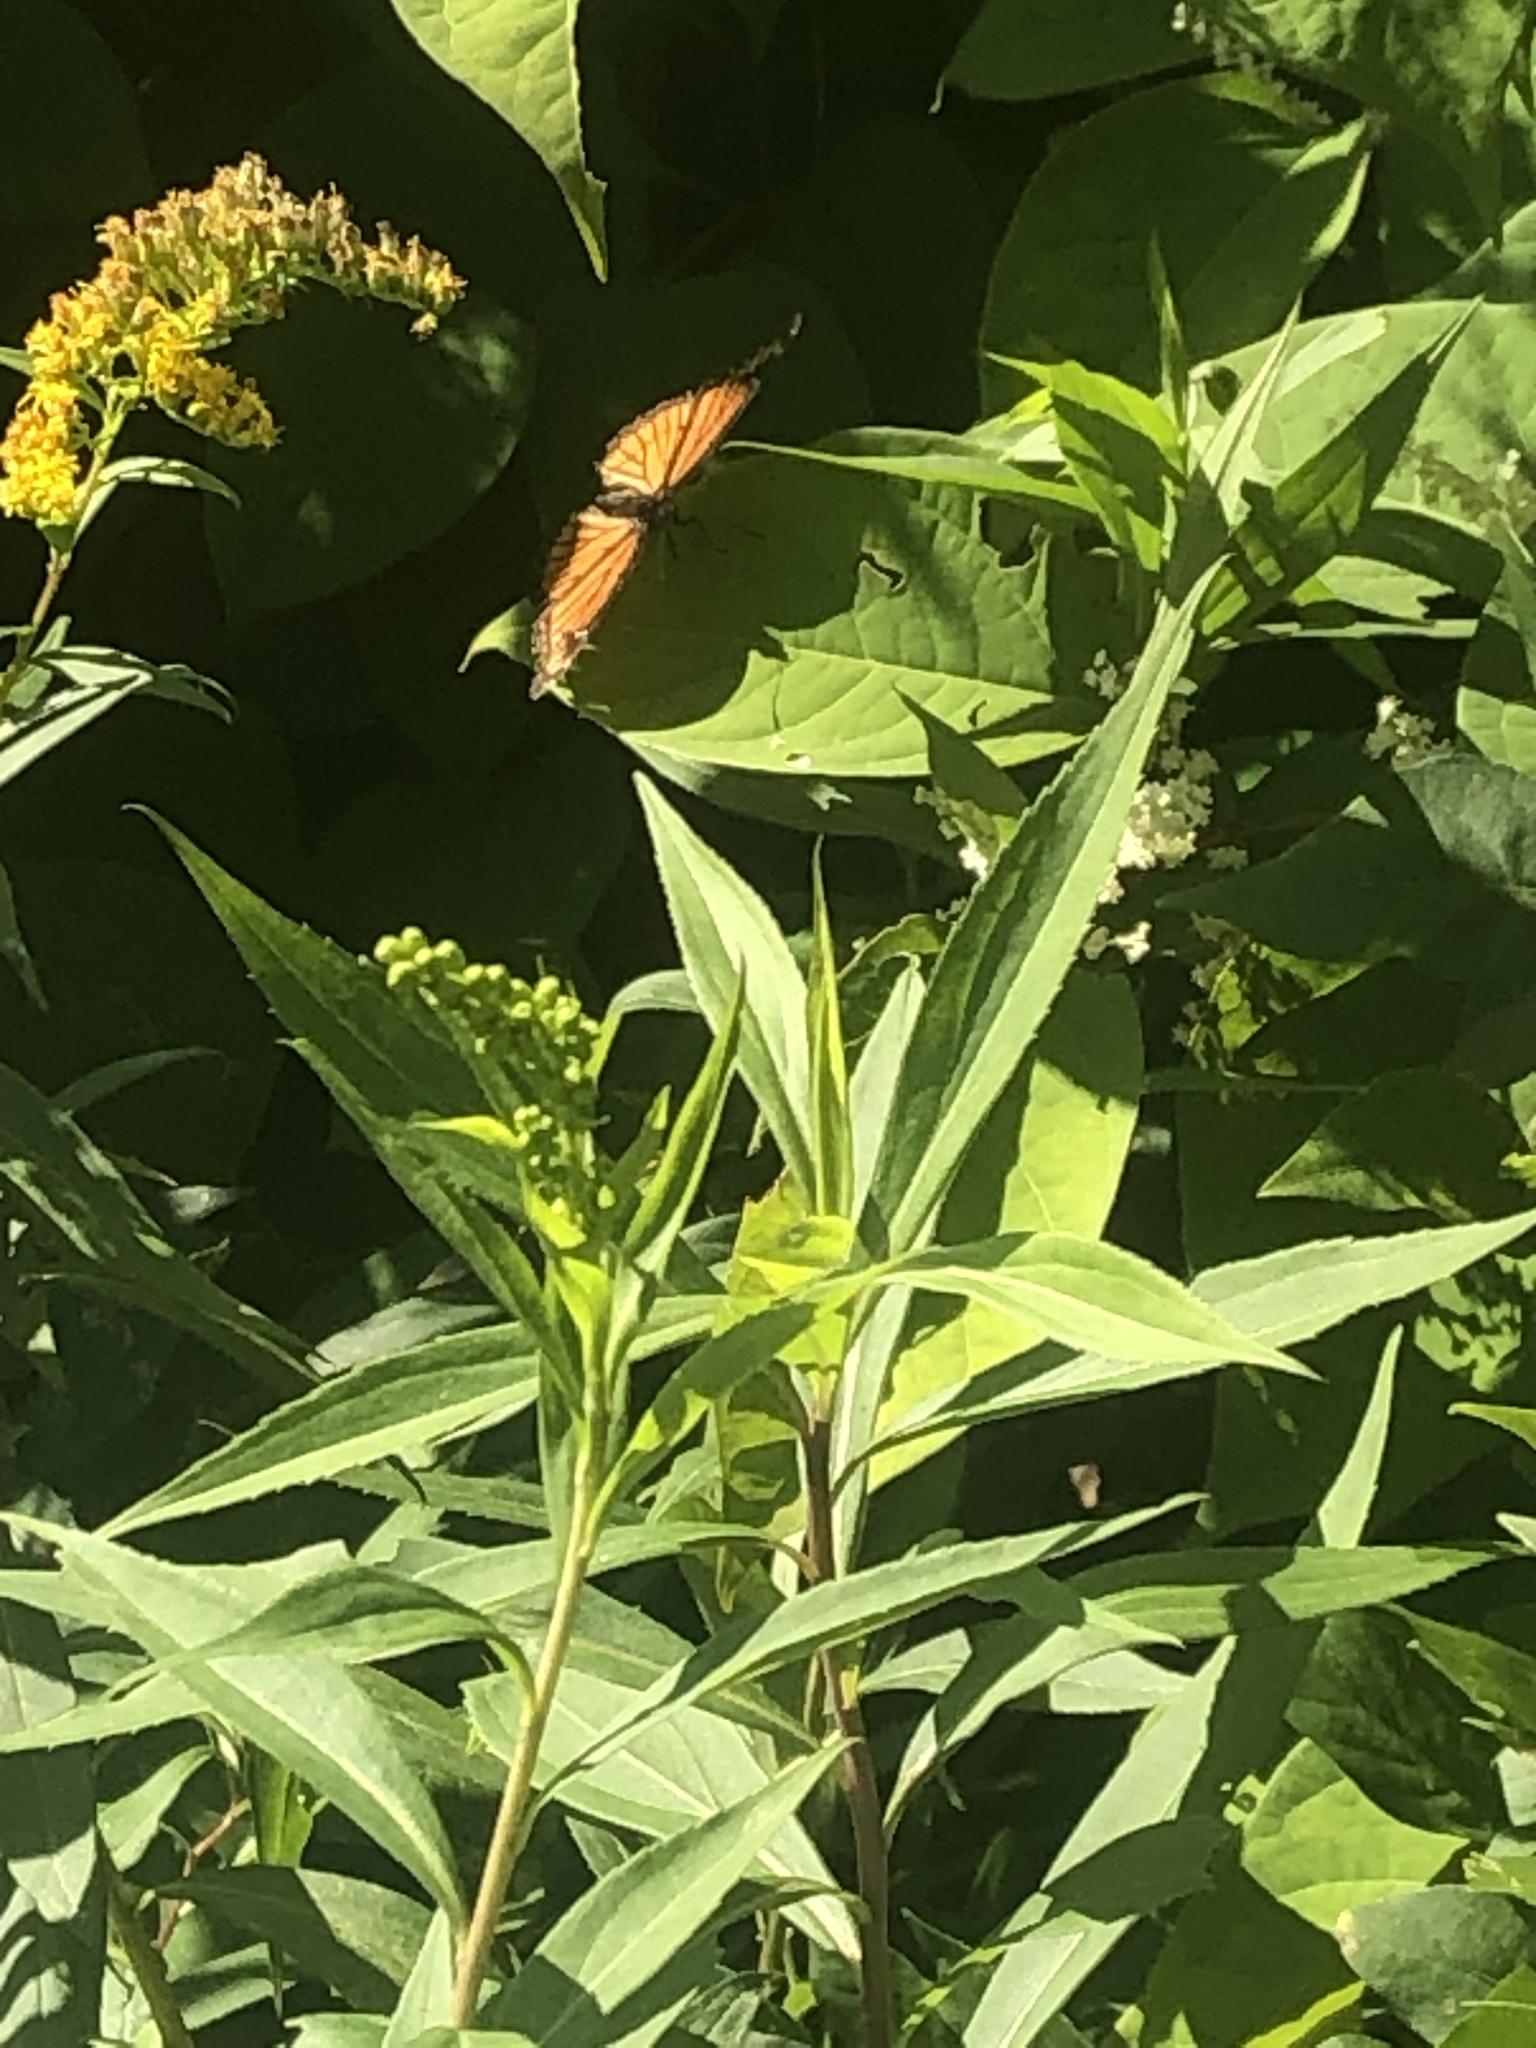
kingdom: Animalia
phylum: Arthropoda
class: Insecta
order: Lepidoptera
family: Nymphalidae
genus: Limenitis
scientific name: Limenitis archippus
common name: Viceroy
